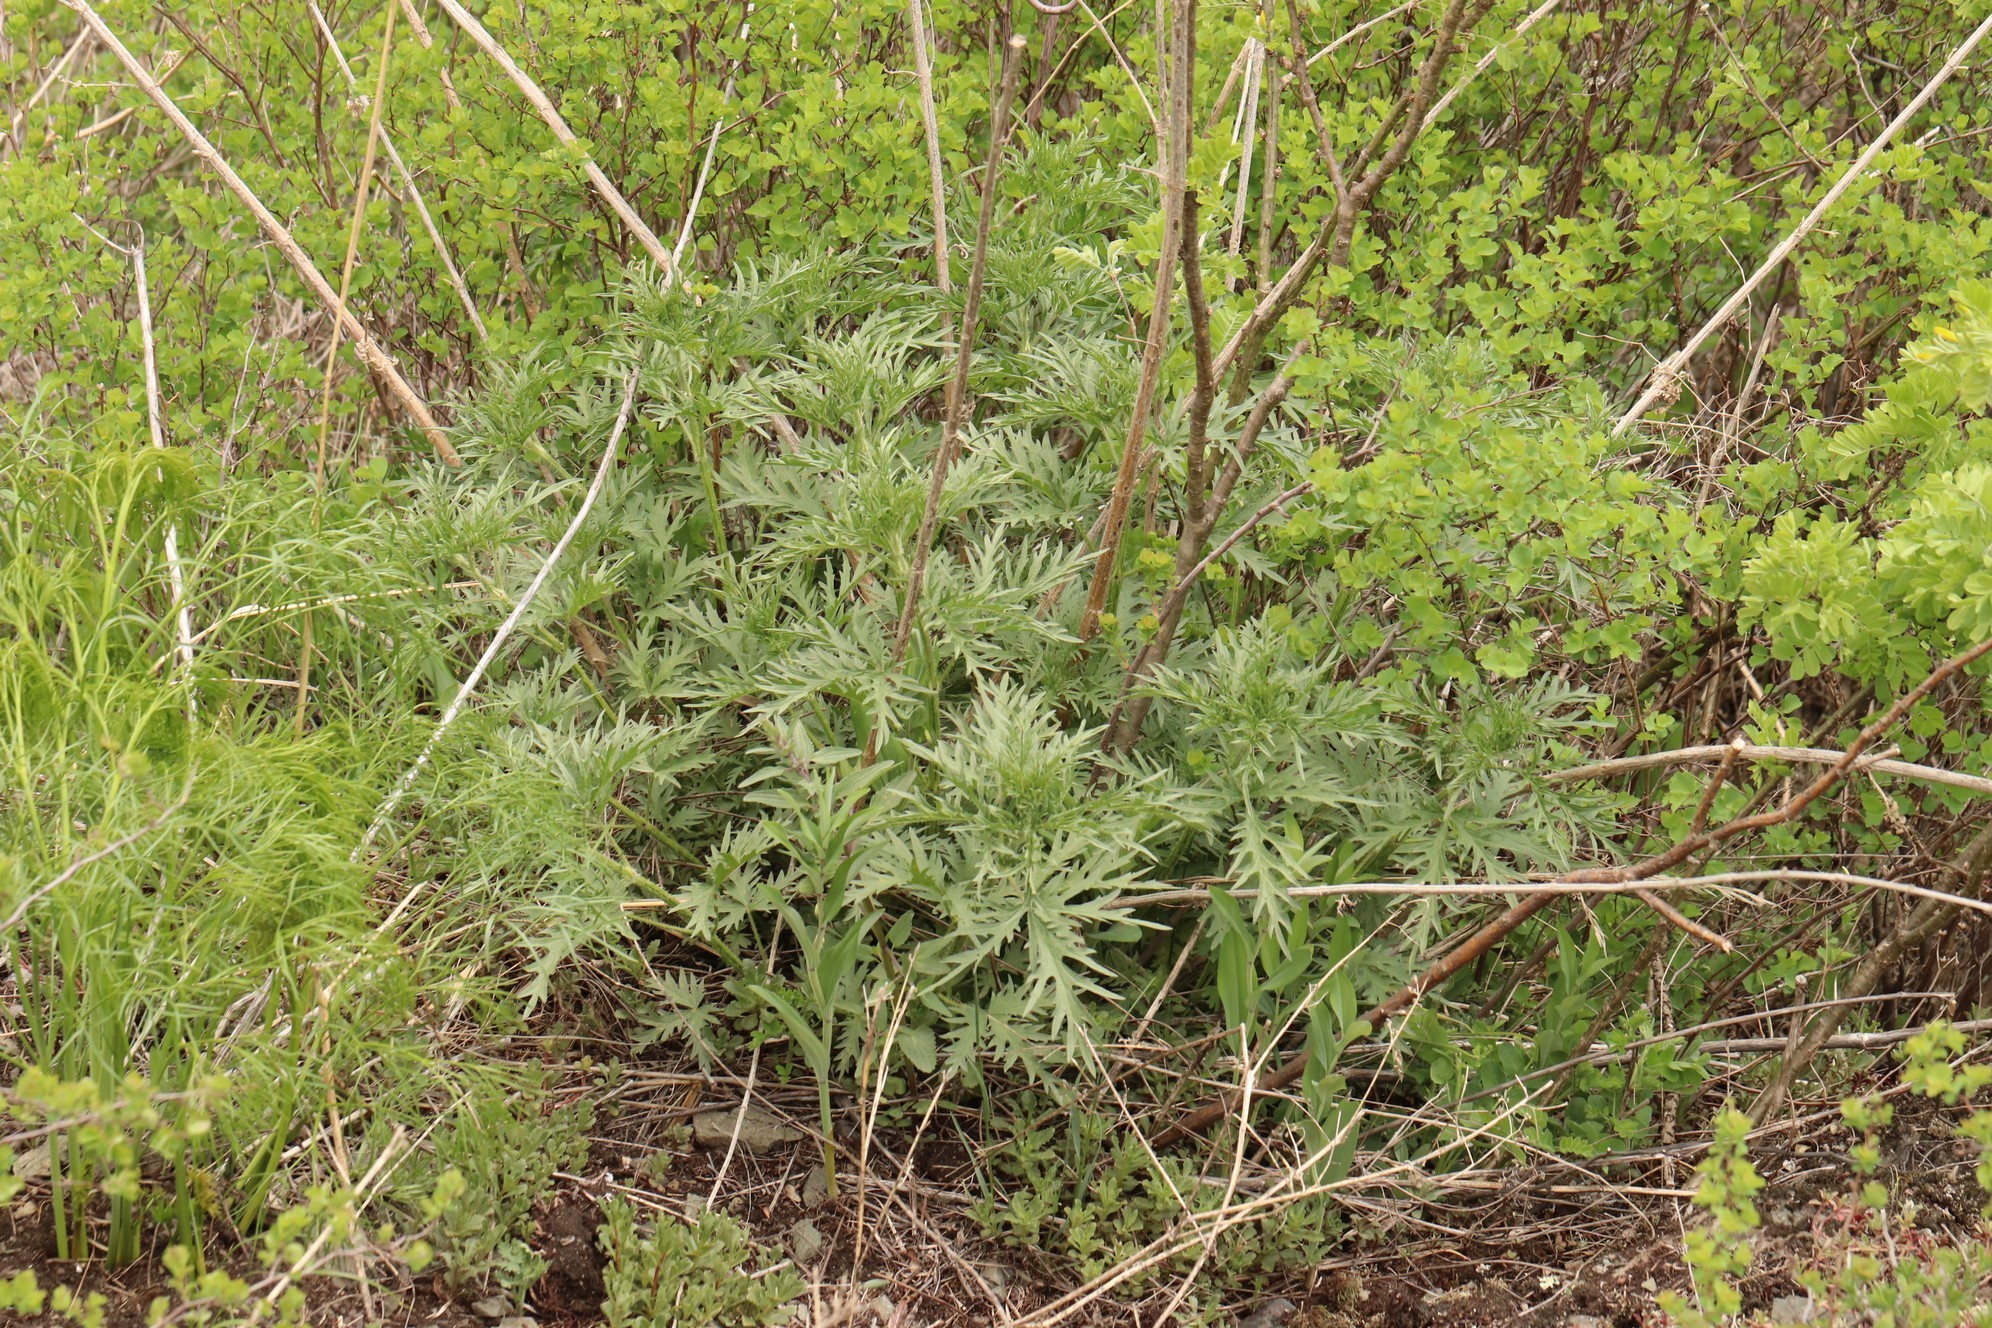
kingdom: Plantae
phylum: Tracheophyta
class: Magnoliopsida
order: Rosales
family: Urticaceae
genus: Urtica
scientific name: Urtica cannabina
